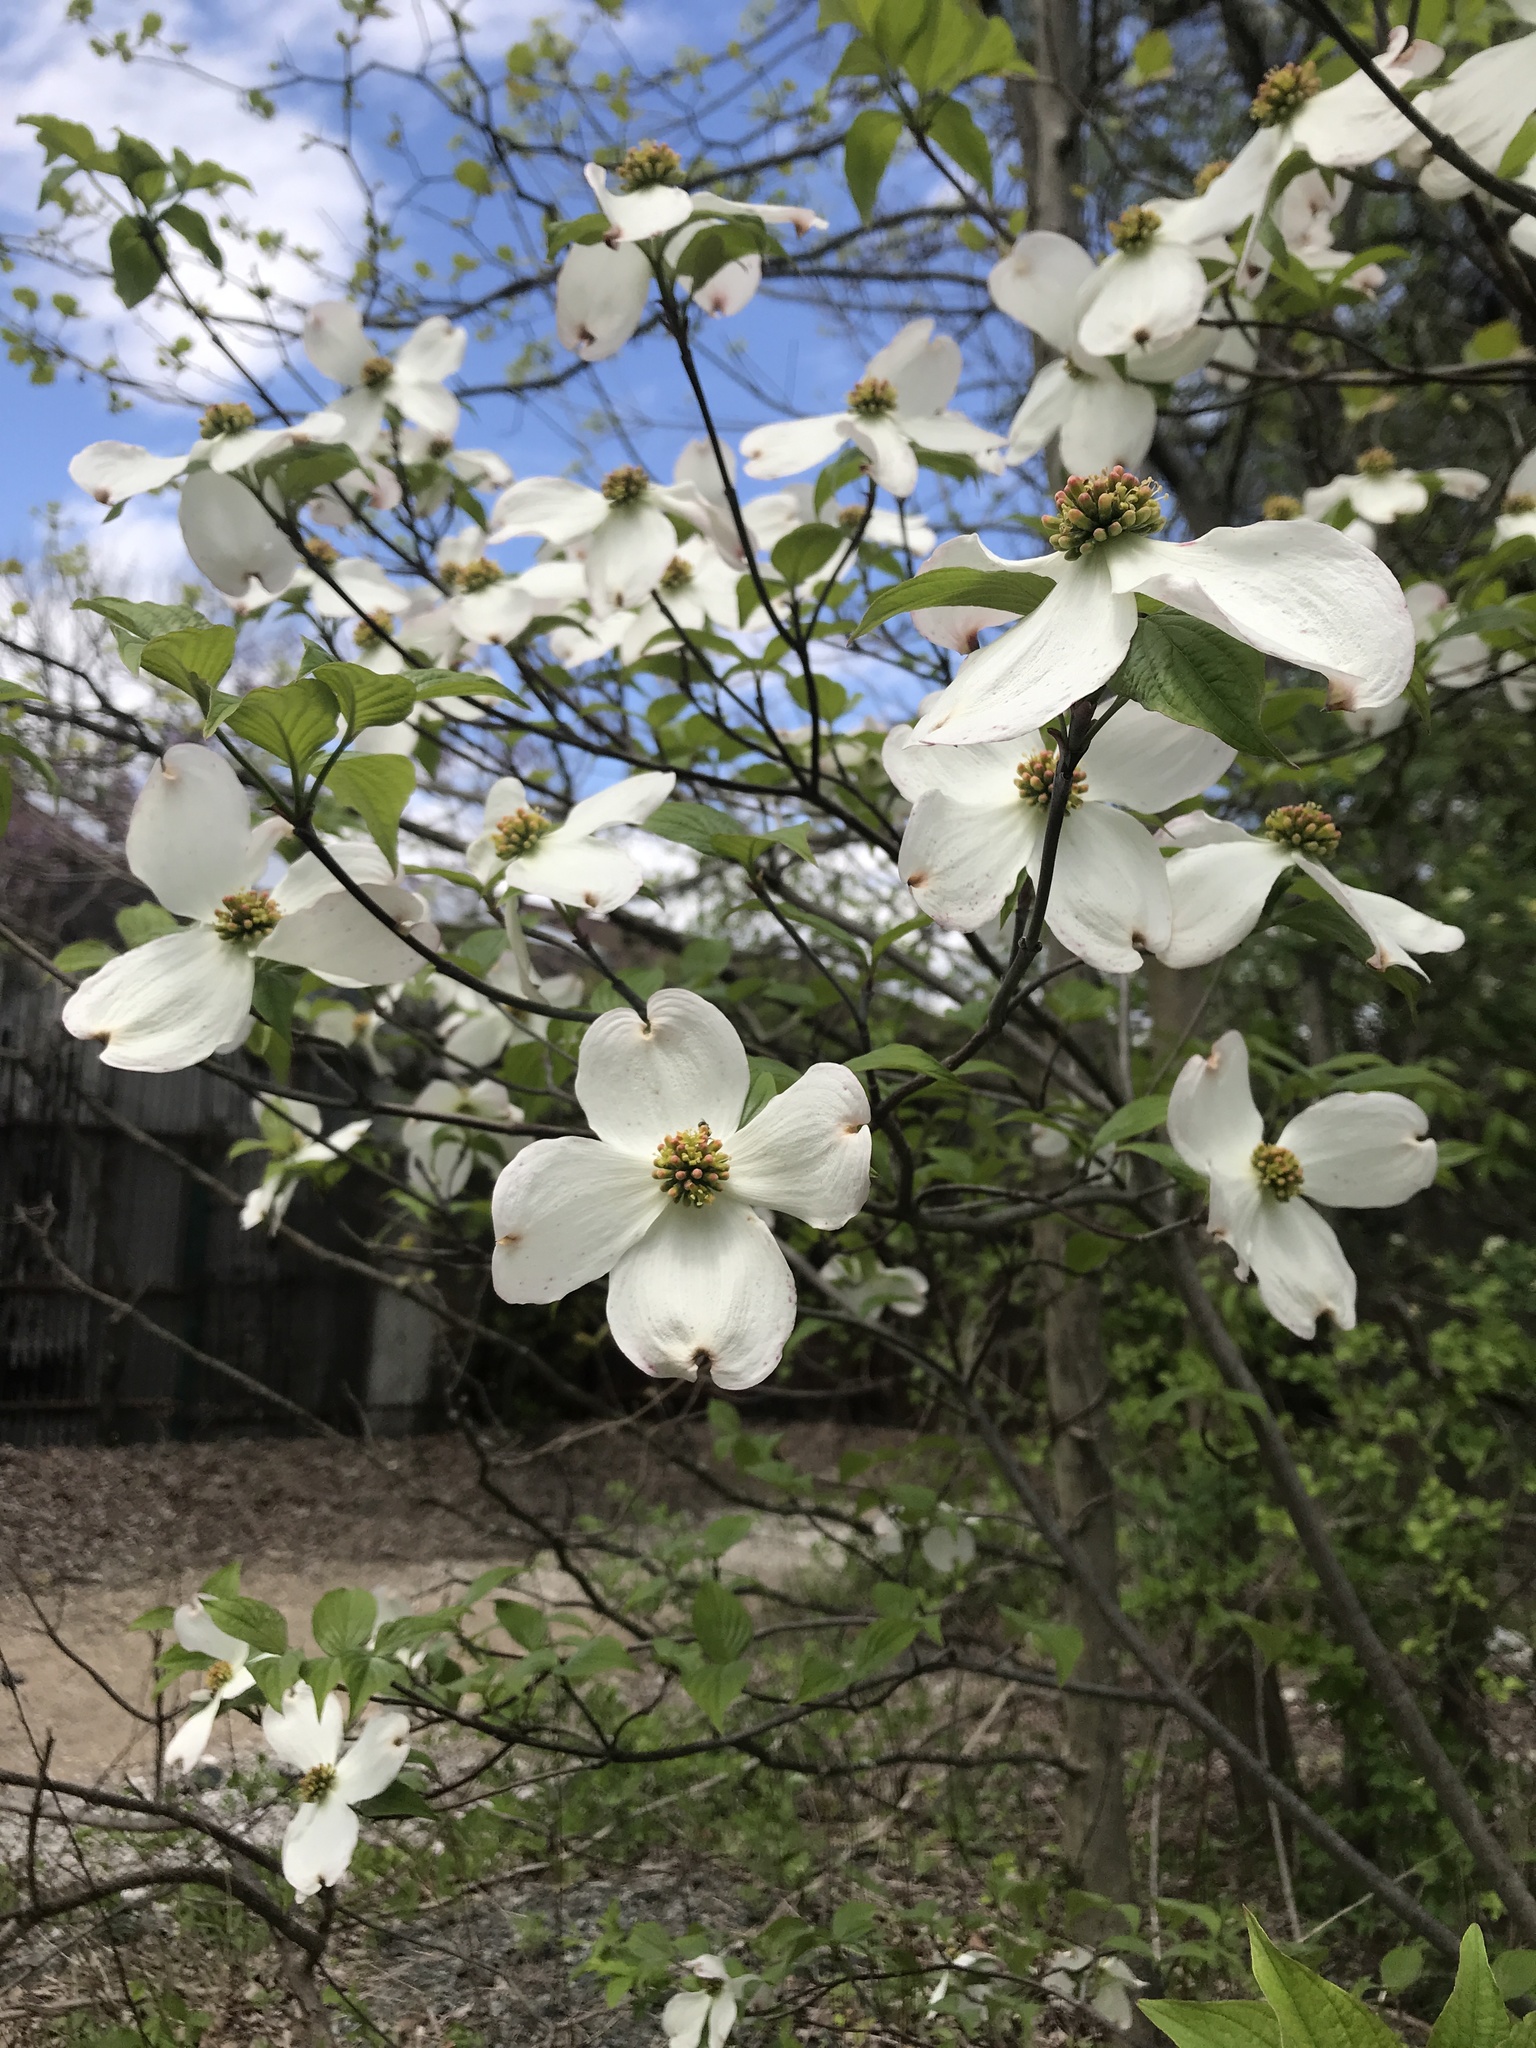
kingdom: Plantae
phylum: Tracheophyta
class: Magnoliopsida
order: Cornales
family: Cornaceae
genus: Cornus
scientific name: Cornus florida
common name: Flowering dogwood
